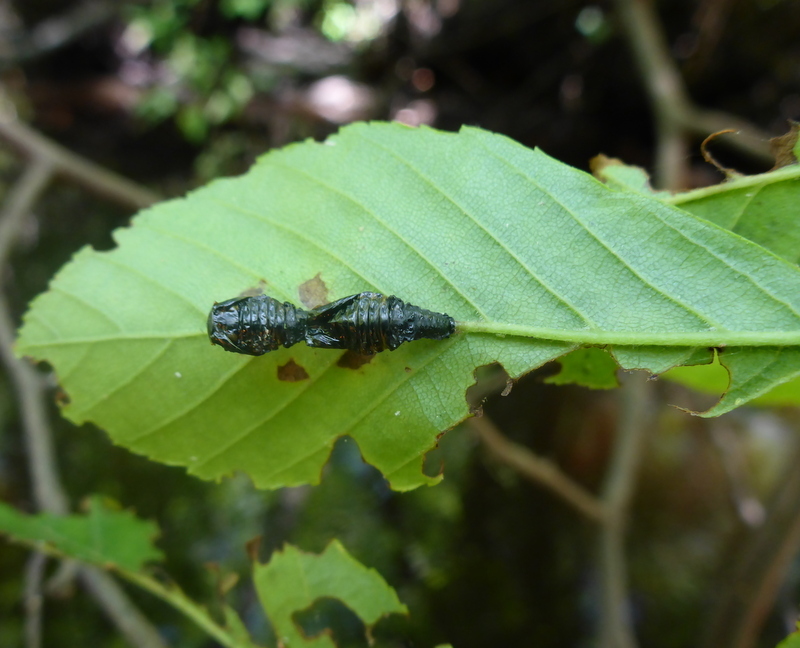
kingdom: Animalia
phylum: Arthropoda
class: Insecta
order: Coleoptera
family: Chrysomelidae
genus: Chrysomela
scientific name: Chrysomela interrupta
